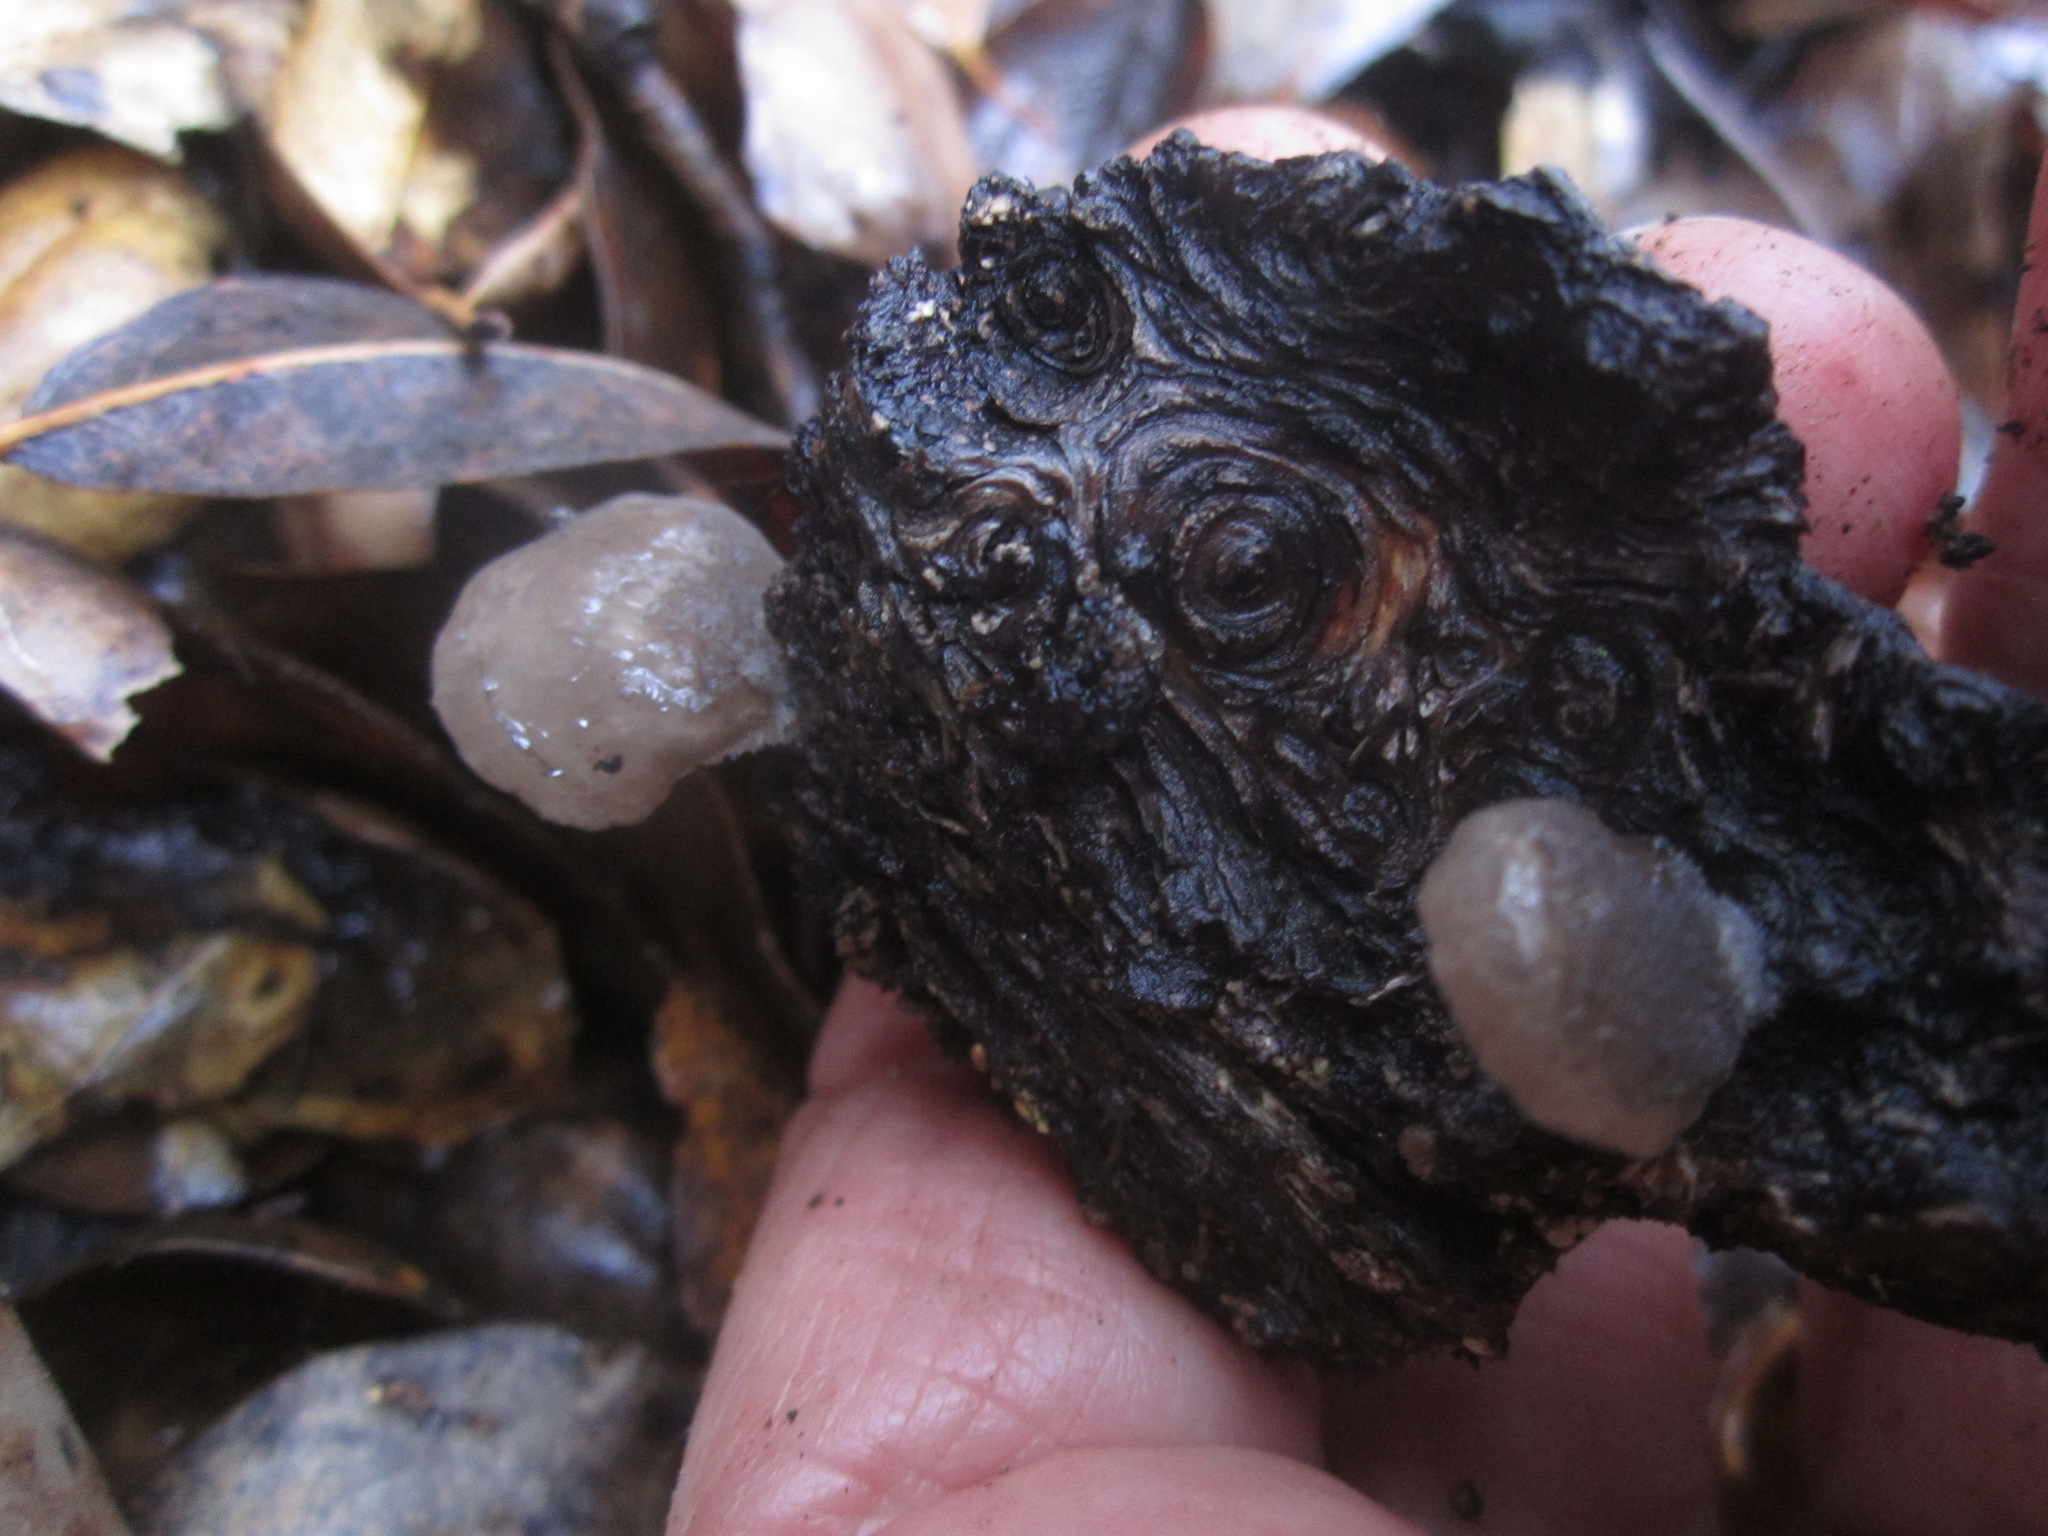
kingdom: Fungi
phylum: Basidiomycota
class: Agaricomycetes
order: Agaricales
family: Pleurotaceae
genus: Hohenbuehelia
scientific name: Hohenbuehelia grisea
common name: Shadowy oysterling
